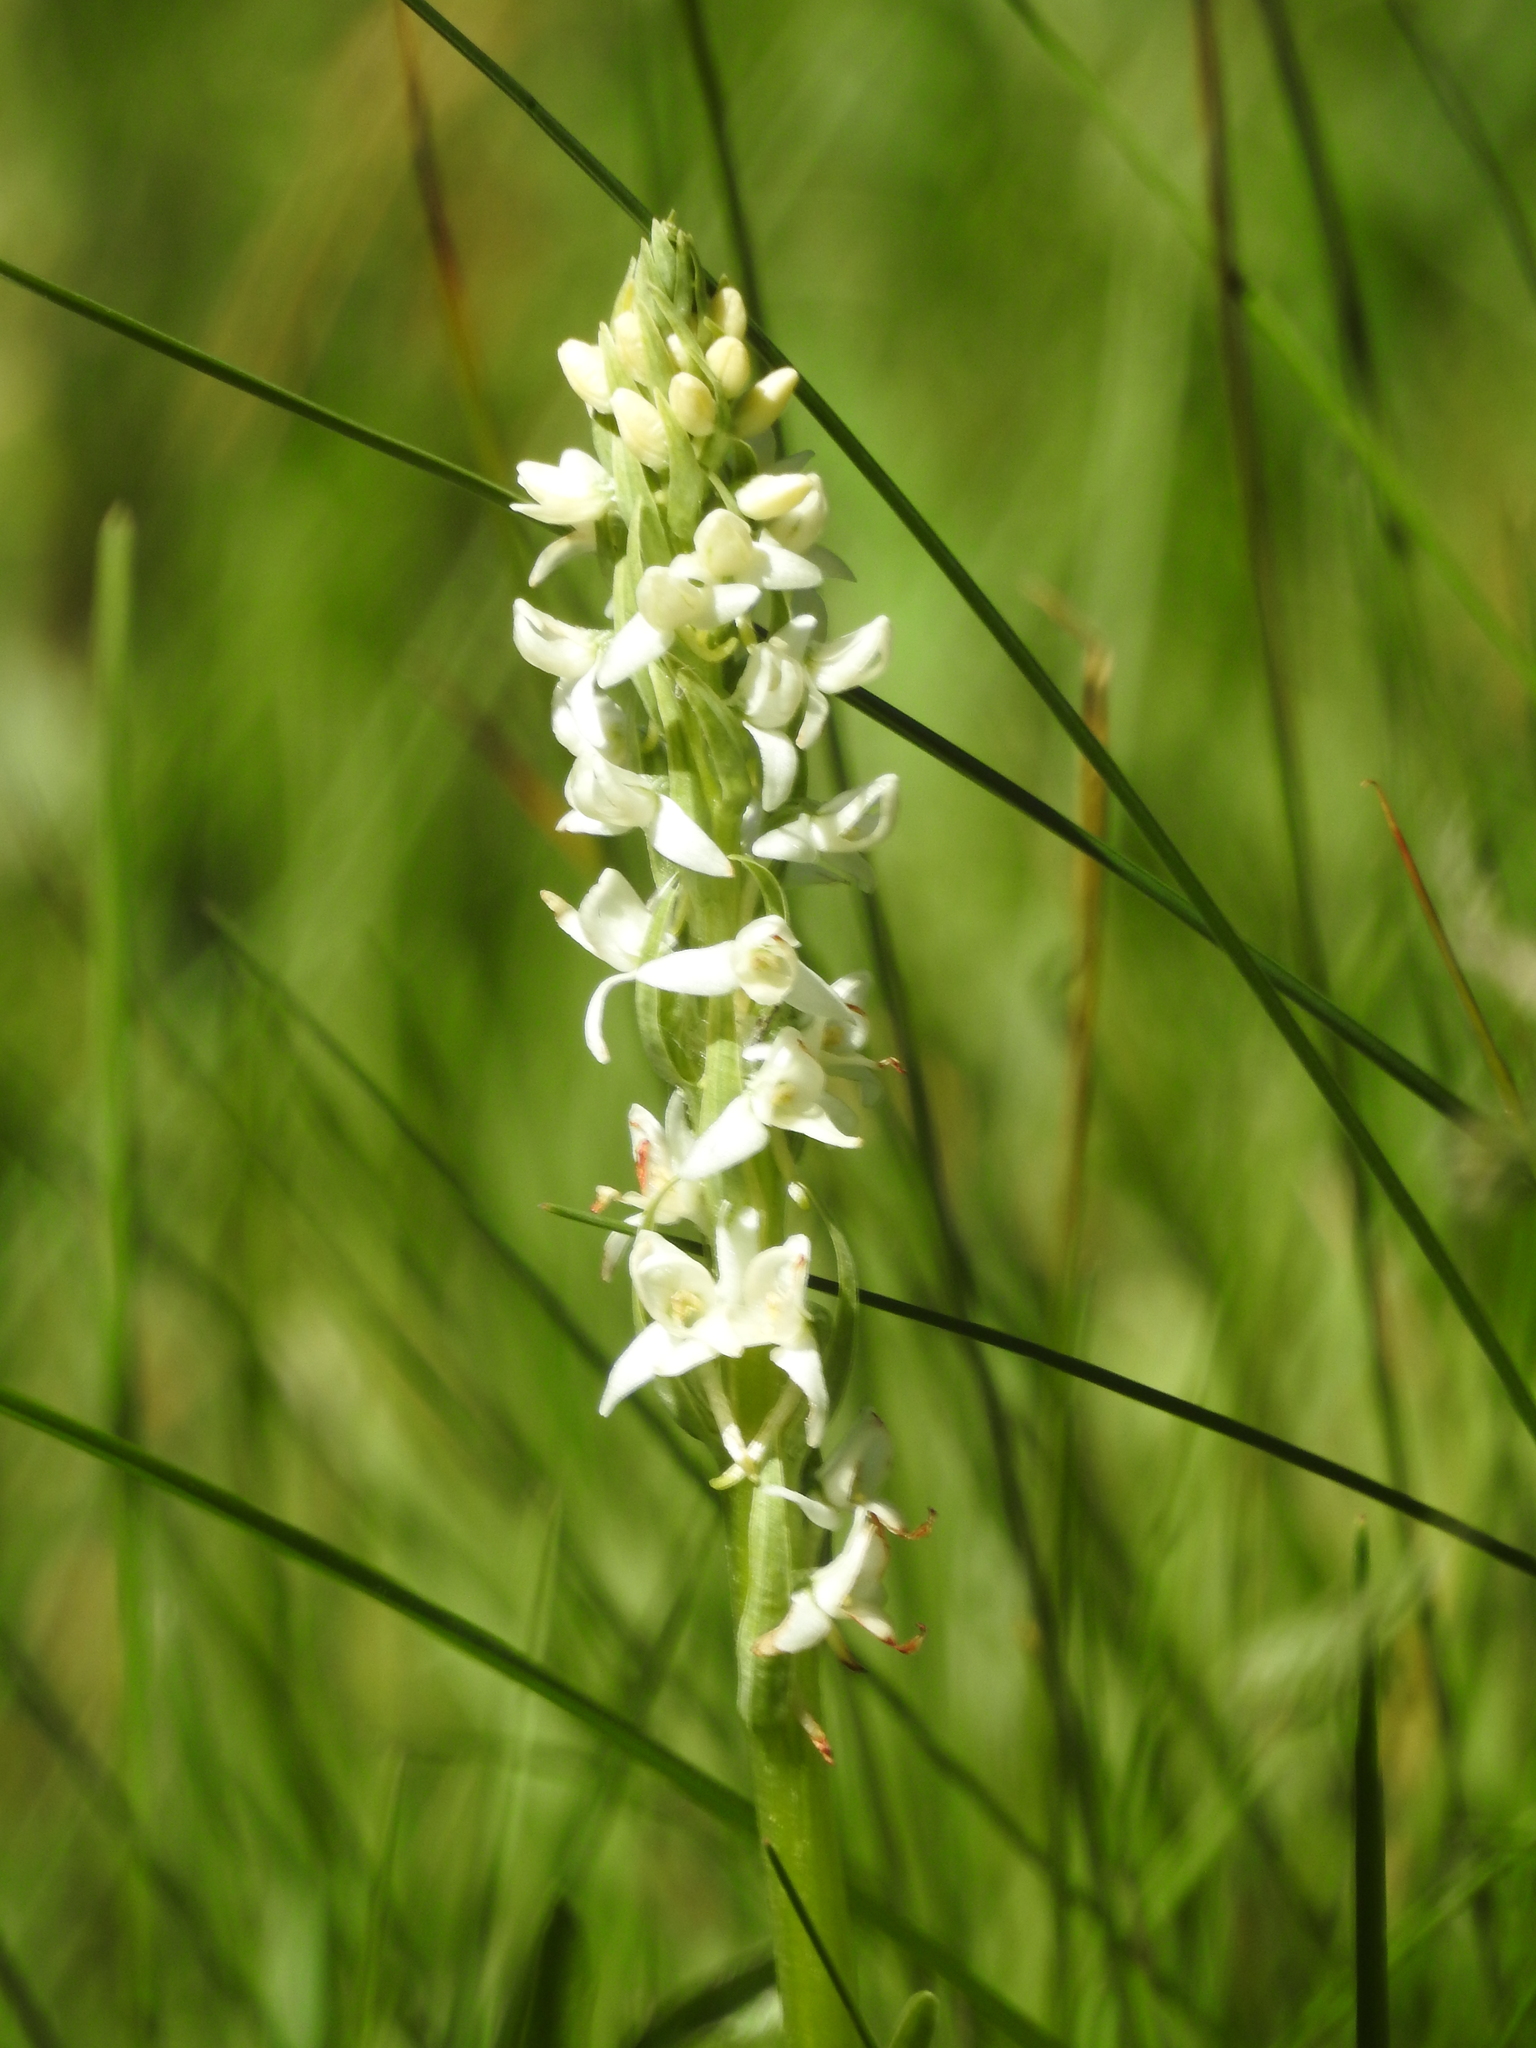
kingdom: Plantae
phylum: Tracheophyta
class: Liliopsida
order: Asparagales
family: Orchidaceae
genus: Platanthera
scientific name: Platanthera dilatata
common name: Bog candles
